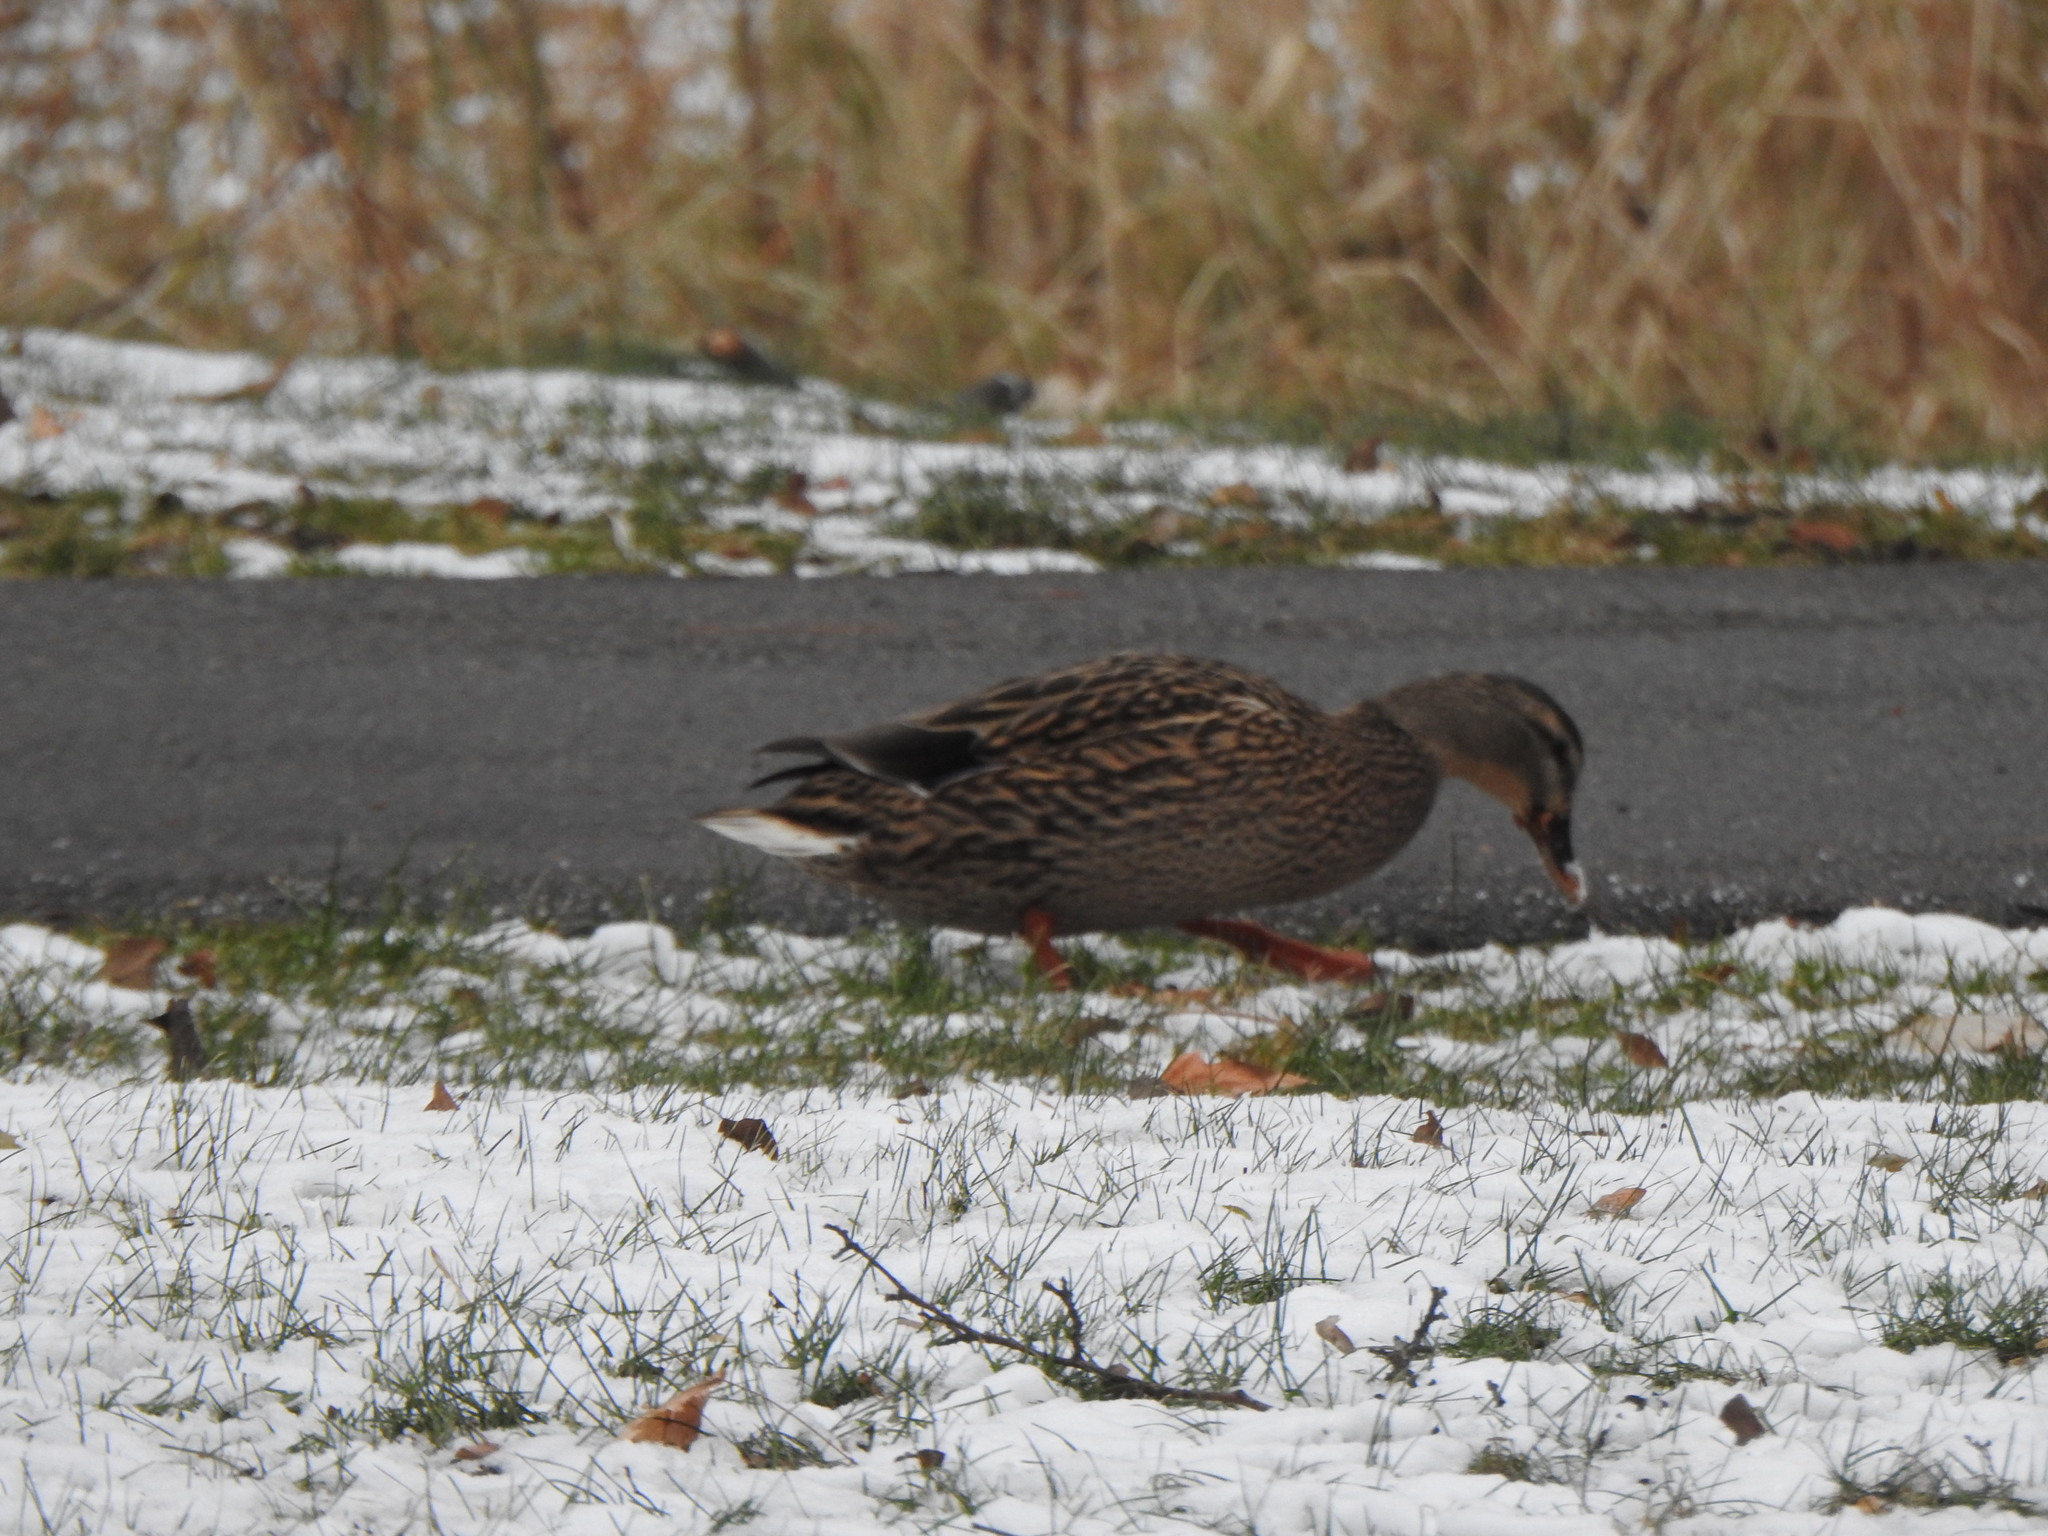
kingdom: Animalia
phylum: Chordata
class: Aves
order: Anseriformes
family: Anatidae
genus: Anas
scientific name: Anas platyrhynchos
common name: Mallard
